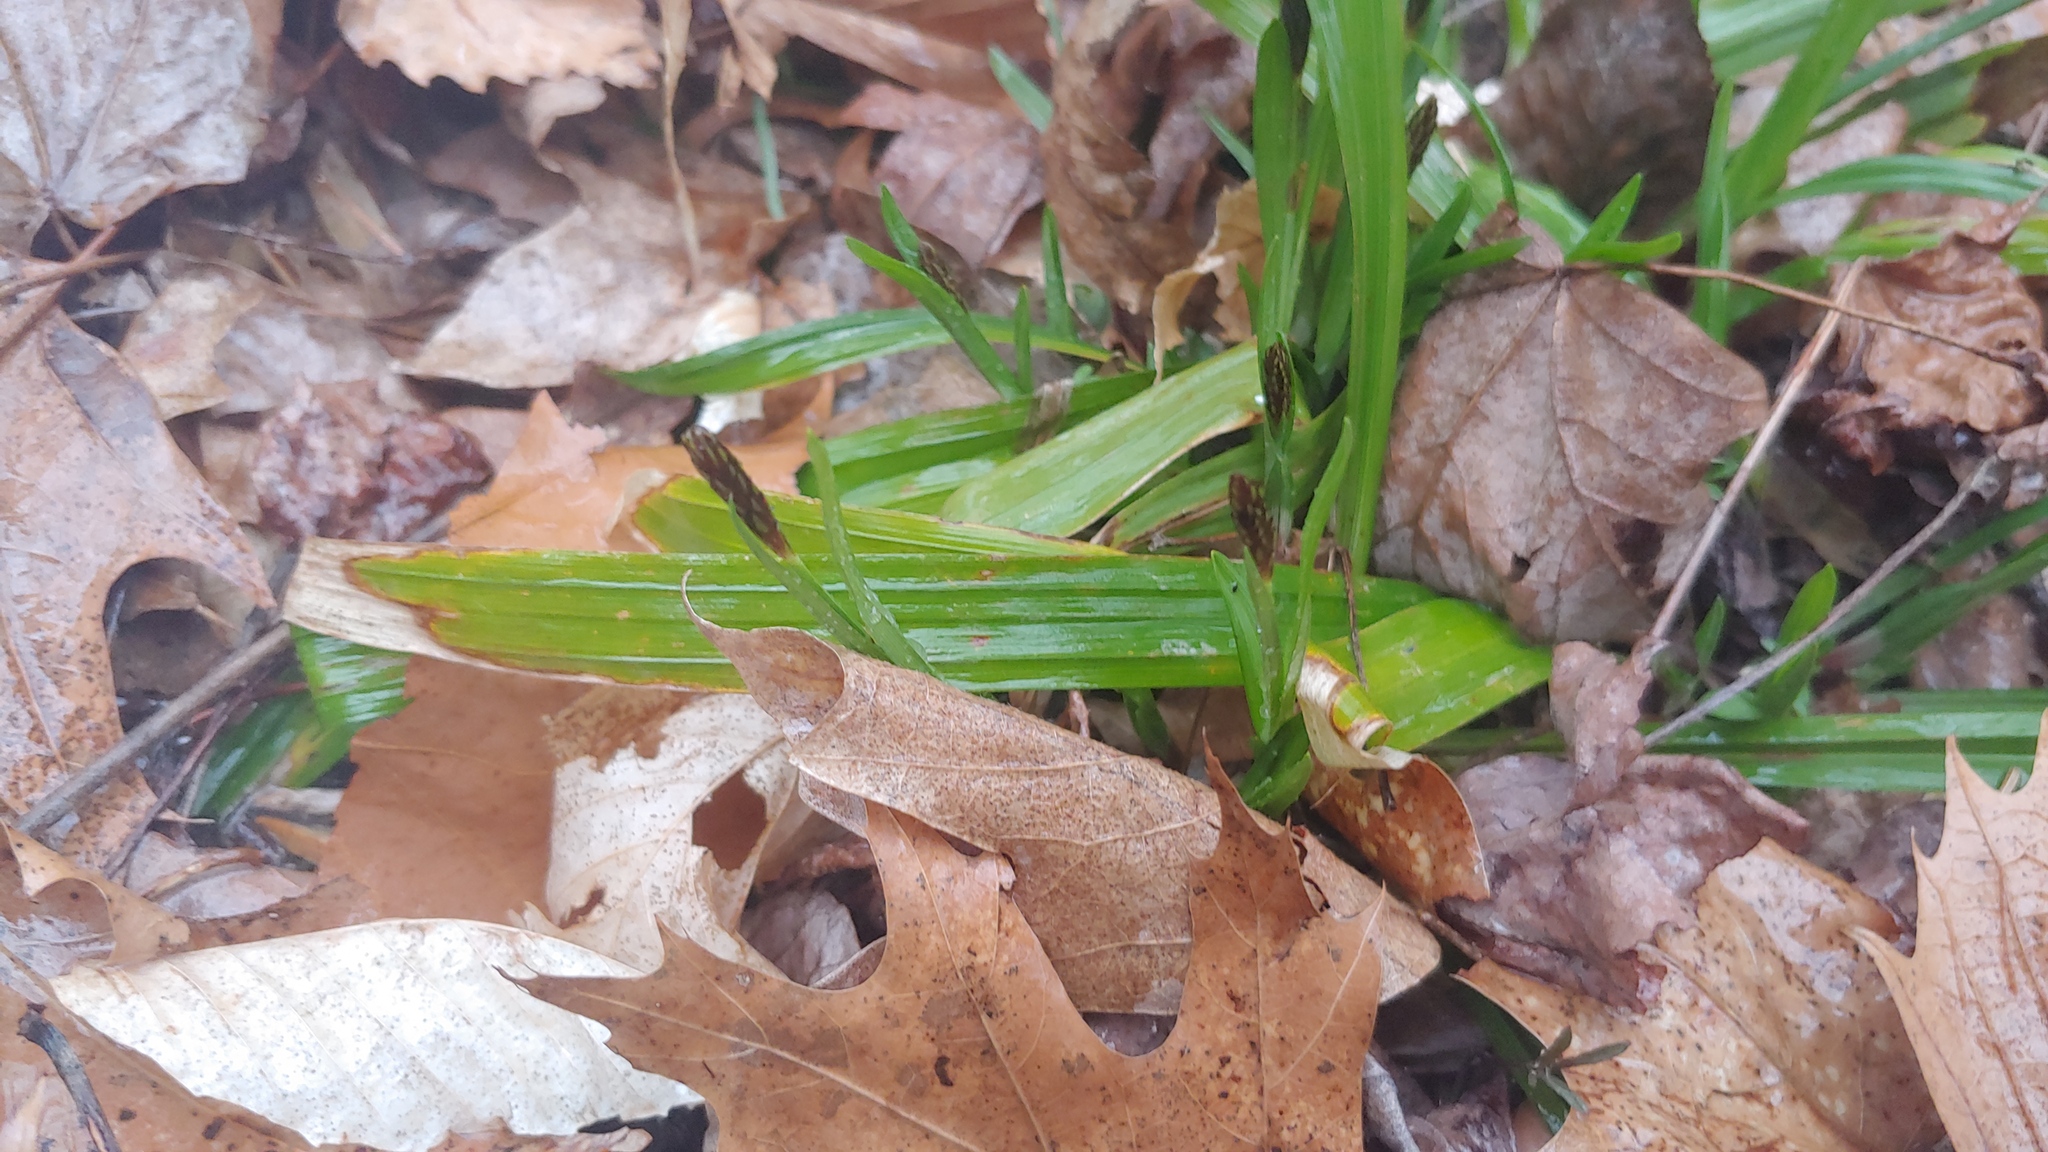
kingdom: Plantae
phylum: Tracheophyta
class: Liliopsida
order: Poales
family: Cyperaceae
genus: Carex
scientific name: Carex careyana
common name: Carey's sedge
